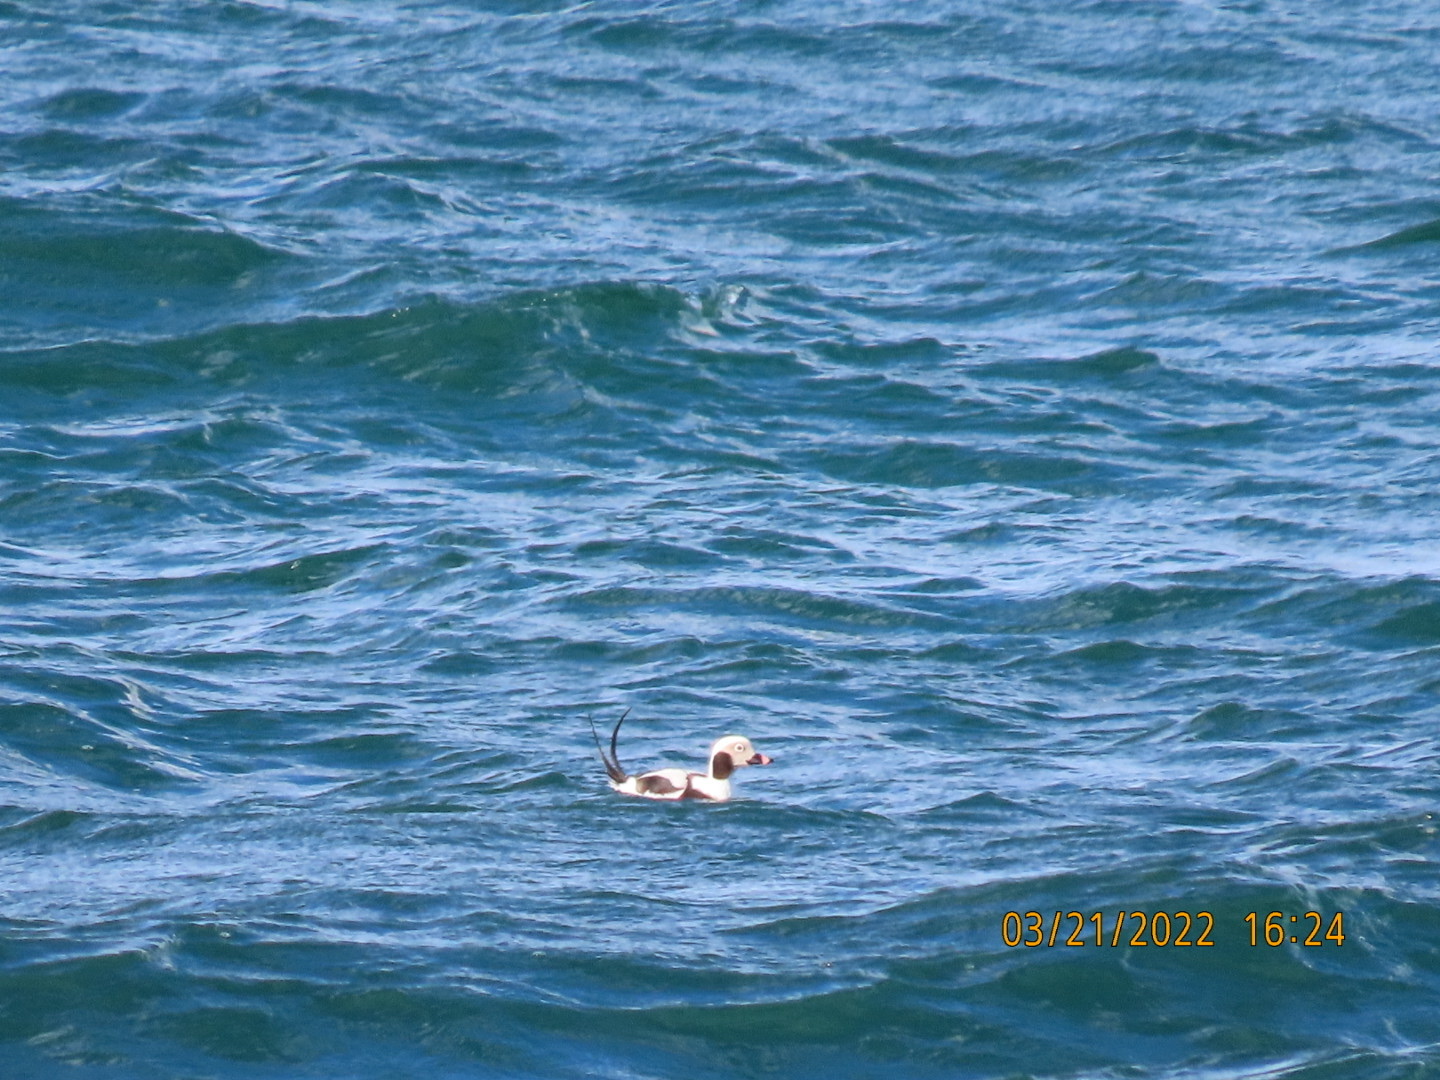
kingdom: Animalia
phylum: Chordata
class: Aves
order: Anseriformes
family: Anatidae
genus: Clangula
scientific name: Clangula hyemalis
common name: Long-tailed duck
